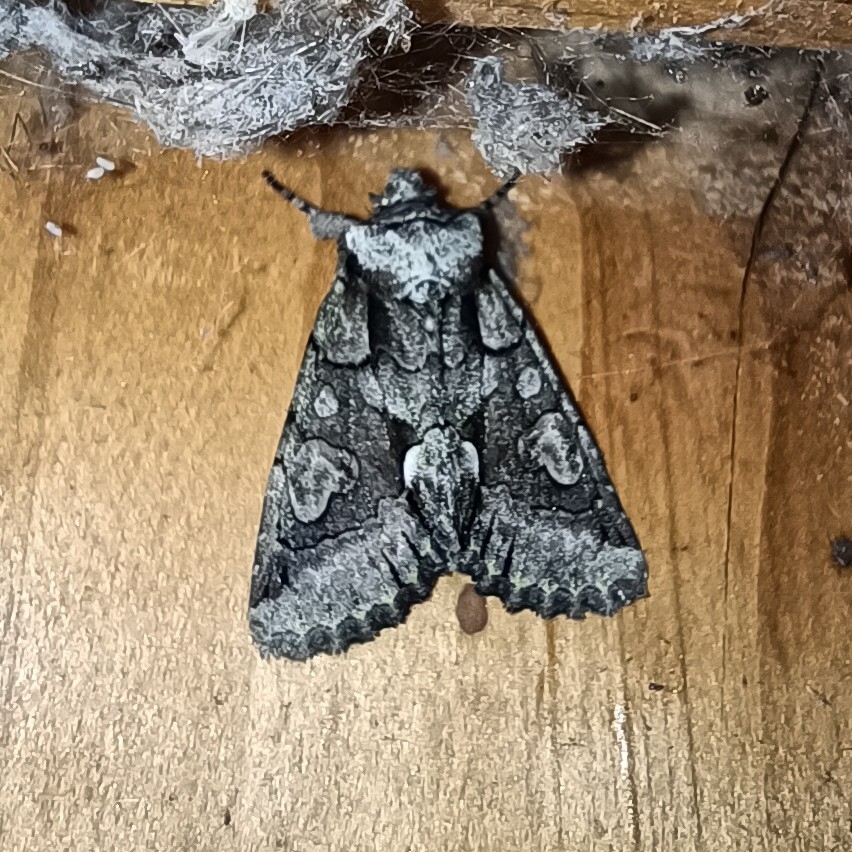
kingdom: Animalia
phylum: Arthropoda
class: Insecta
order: Lepidoptera
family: Noctuidae
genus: Allophyes
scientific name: Allophyes oxyacanthae
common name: Green-brindled crescent
